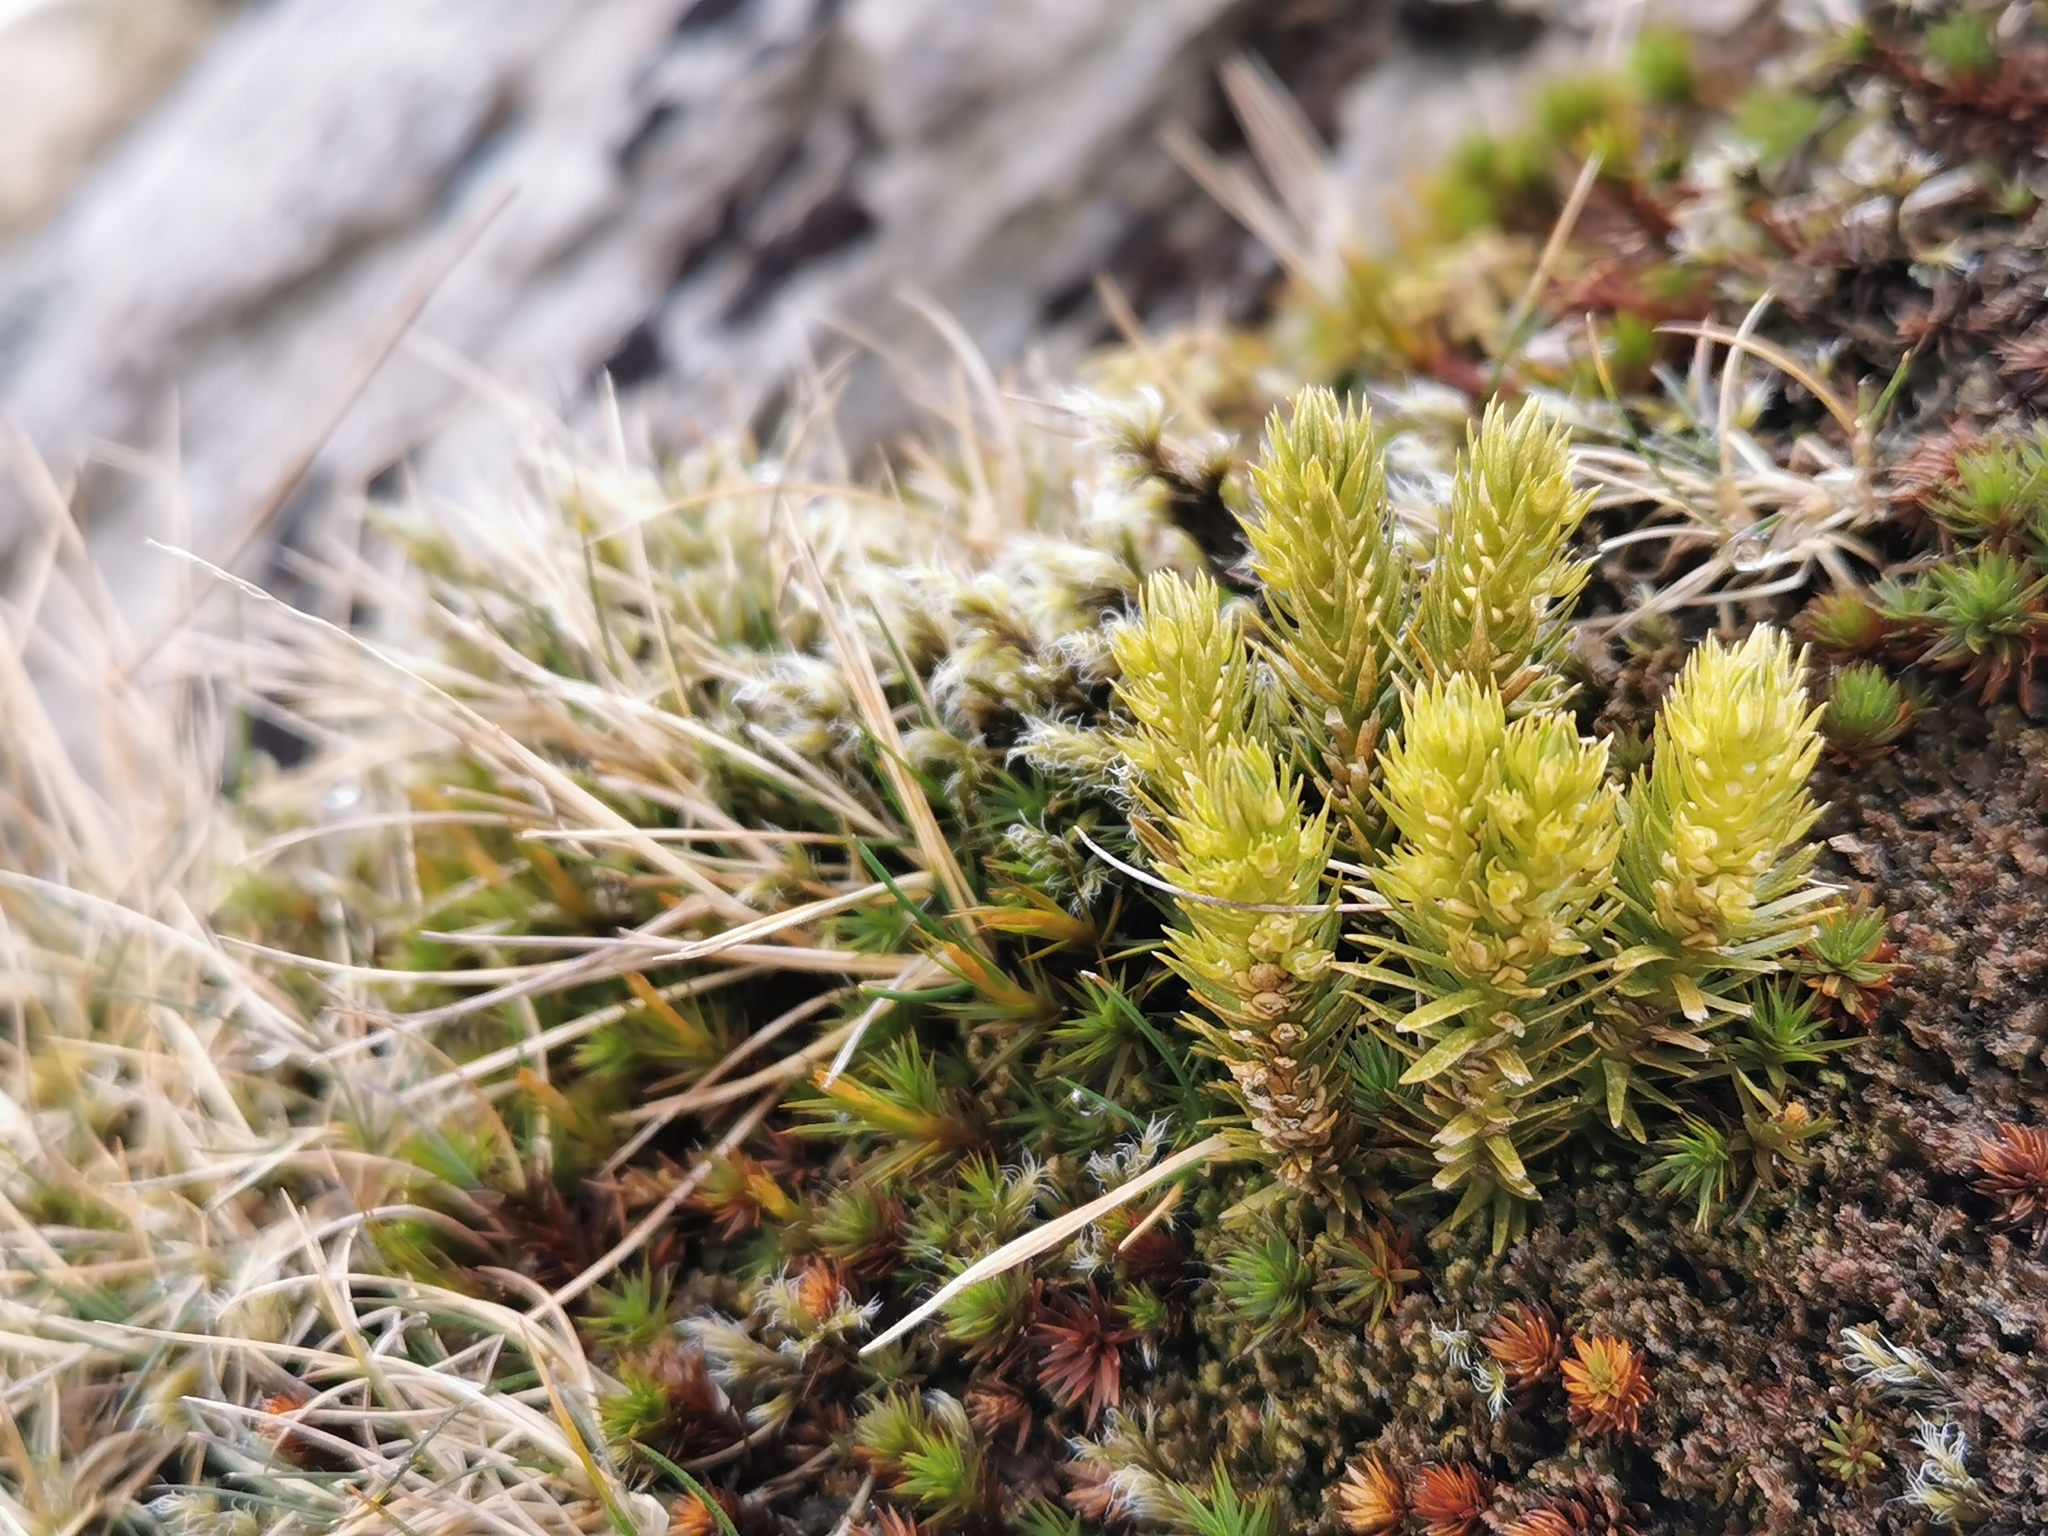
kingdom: Plantae
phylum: Tracheophyta
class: Lycopodiopsida
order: Lycopodiales
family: Lycopodiaceae
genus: Huperzia
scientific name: Huperzia selago
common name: Northern firmoss
